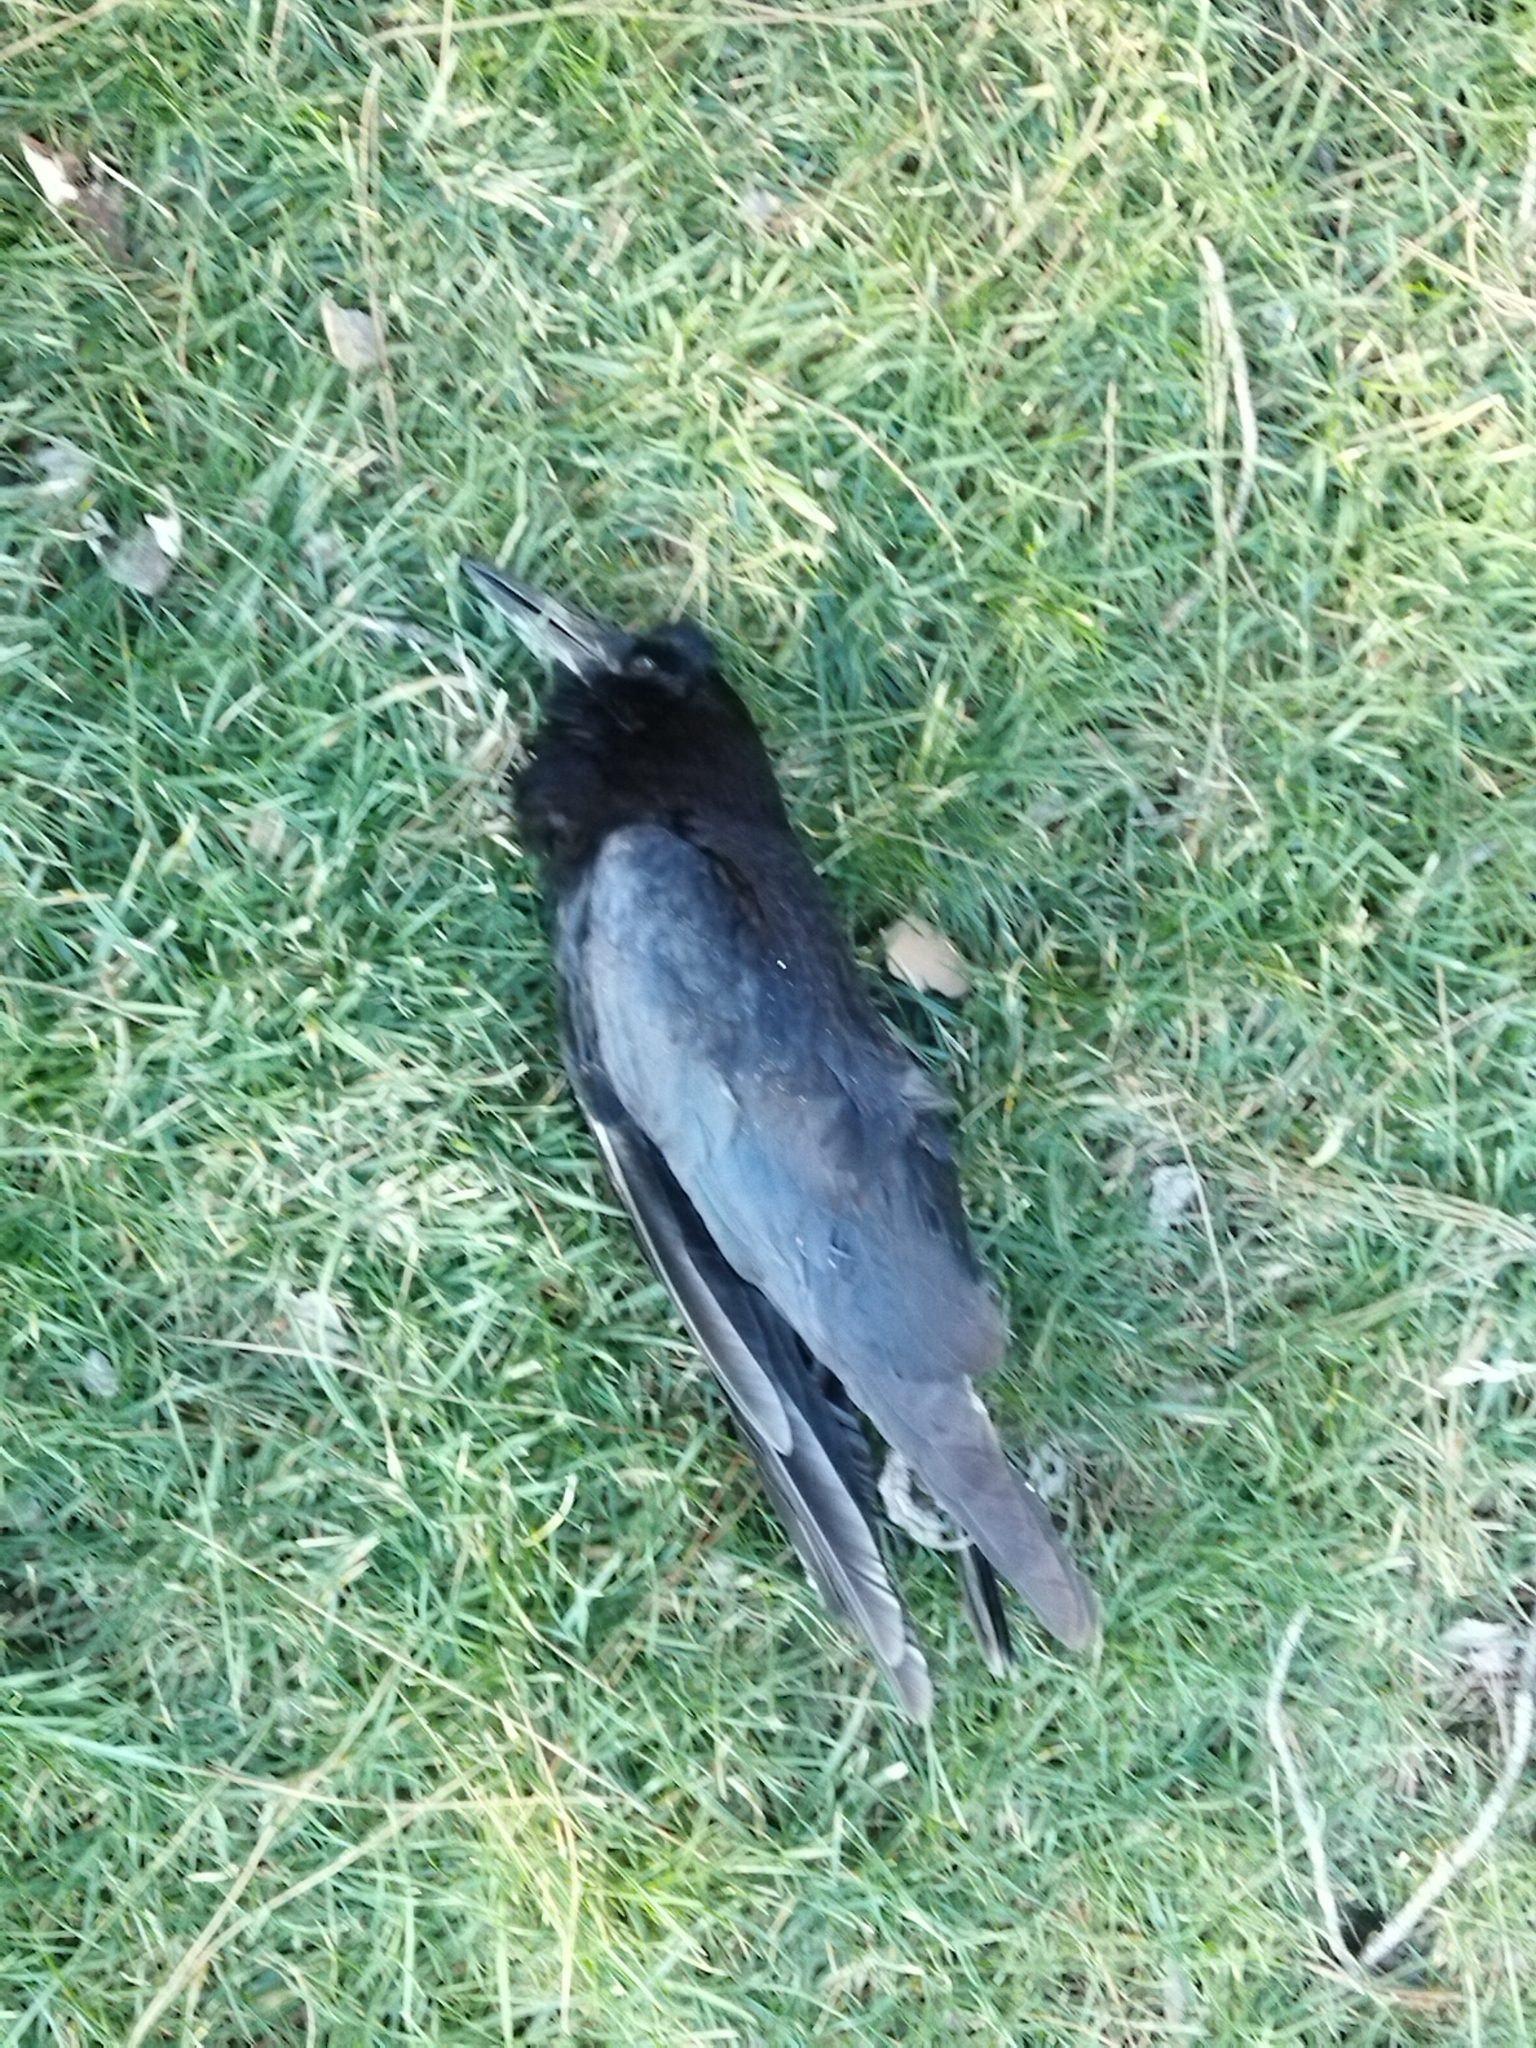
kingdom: Animalia
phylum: Chordata
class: Aves
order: Passeriformes
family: Corvidae
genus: Corvus
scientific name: Corvus frugilegus
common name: Rook
